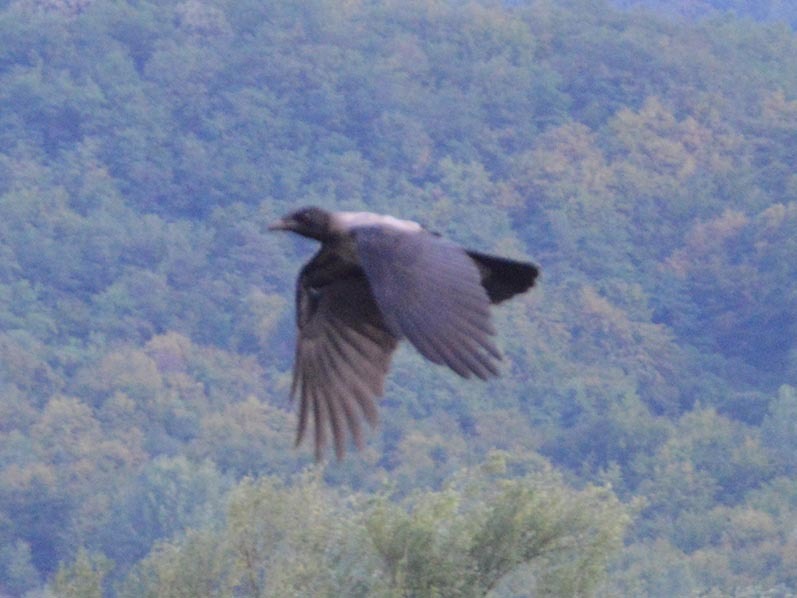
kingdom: Animalia
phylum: Chordata
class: Aves
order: Passeriformes
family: Corvidae
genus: Corvus
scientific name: Corvus cornix
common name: Hooded crow
